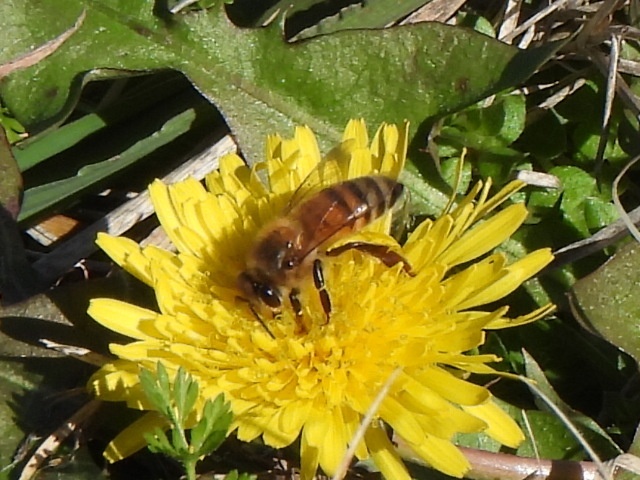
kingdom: Animalia
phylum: Arthropoda
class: Insecta
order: Hymenoptera
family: Apidae
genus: Apis
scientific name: Apis mellifera
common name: Honey bee
